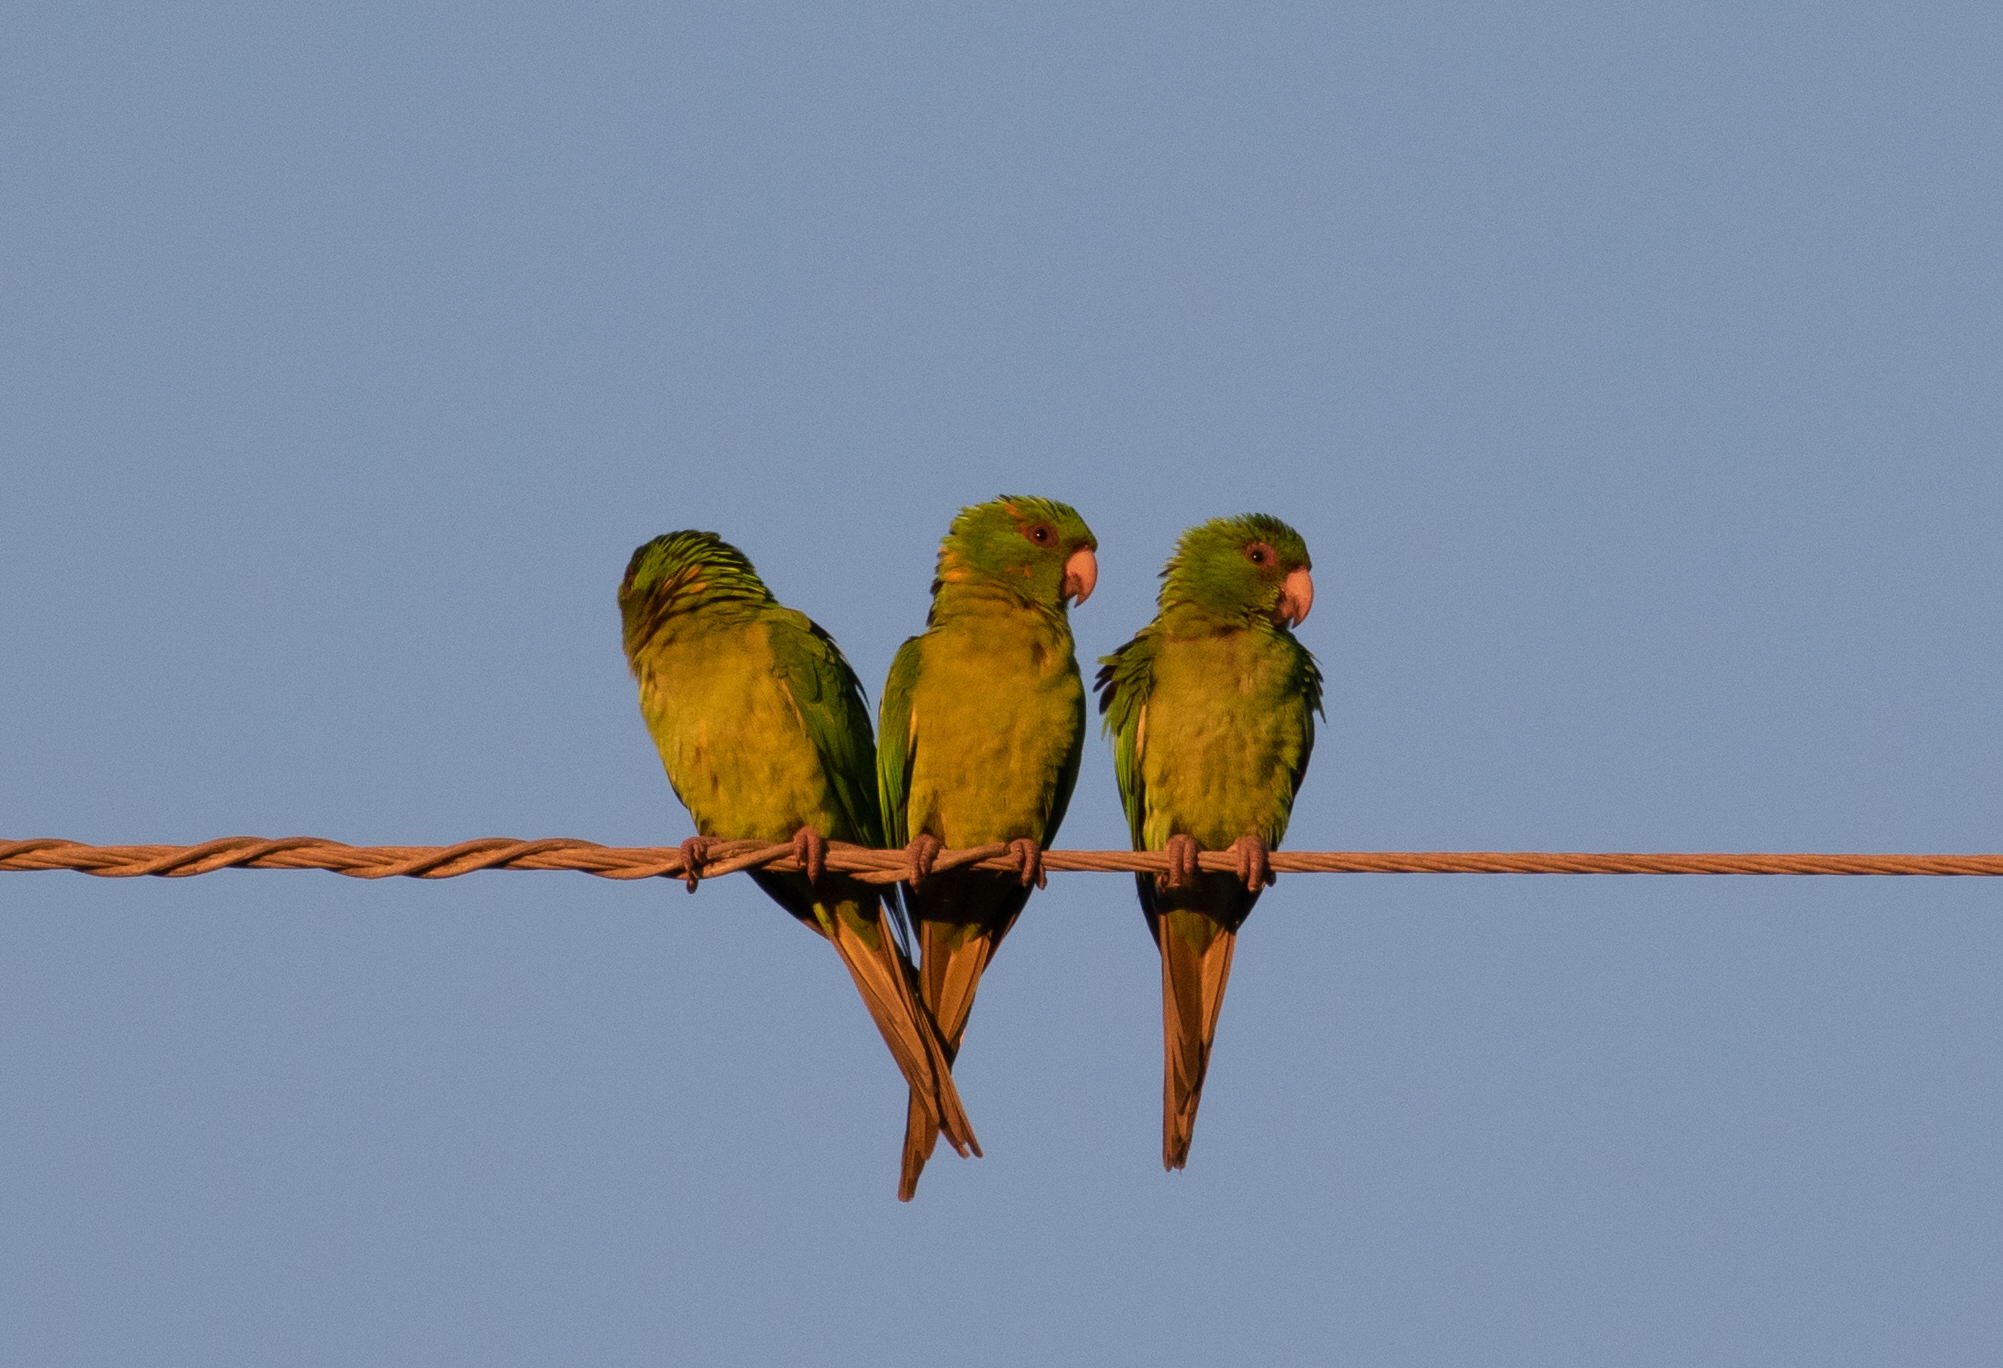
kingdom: Animalia
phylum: Chordata
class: Aves
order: Psittaciformes
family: Psittacidae
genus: Aratinga
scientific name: Aratinga holochlora
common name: Green parakeet
